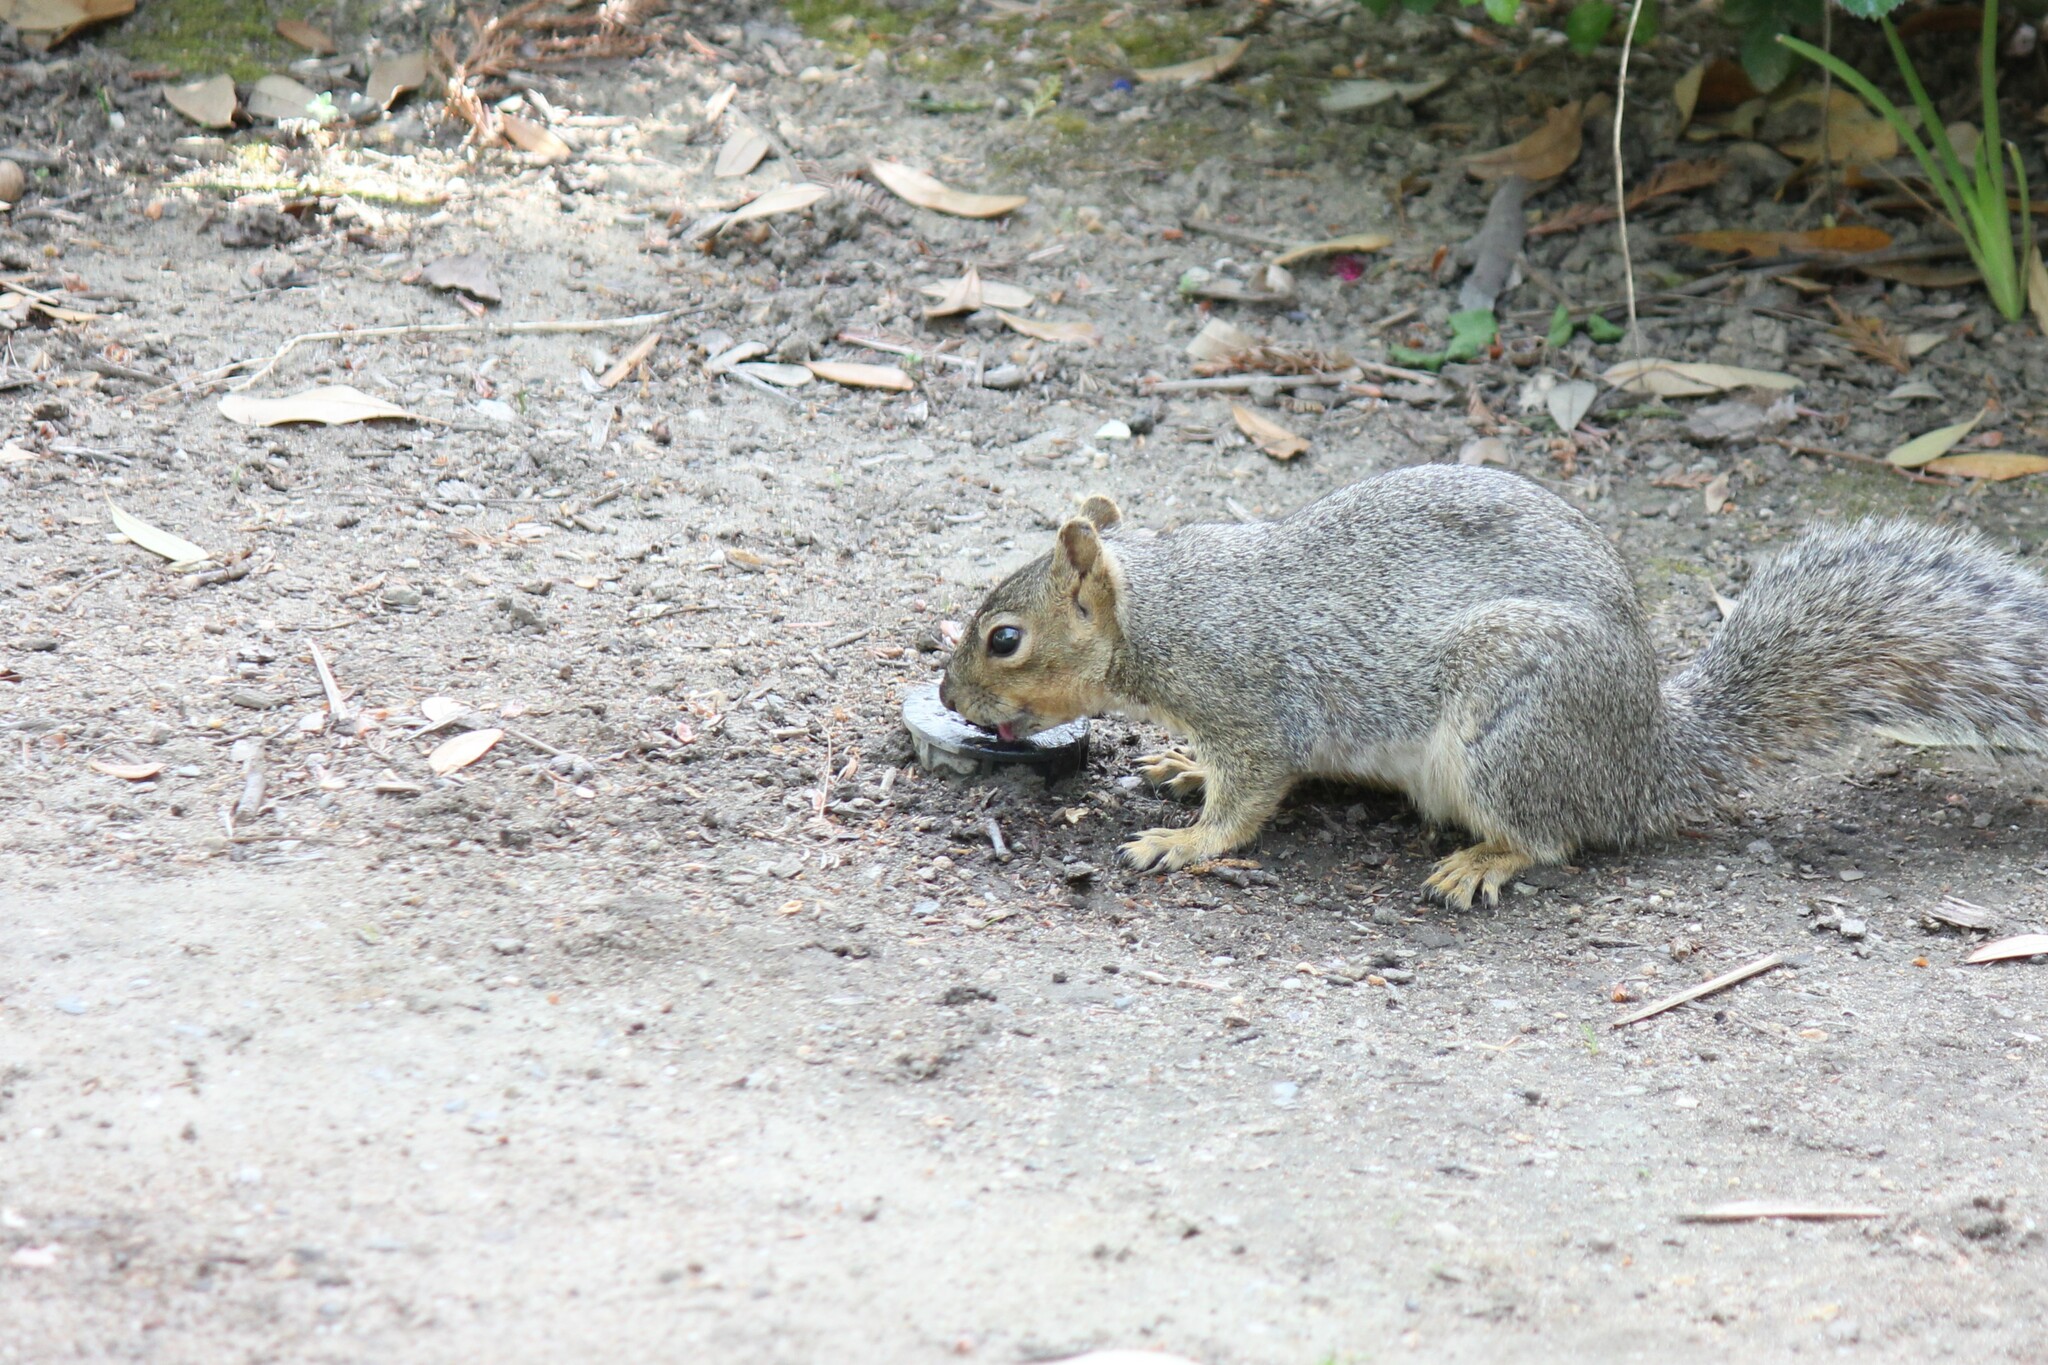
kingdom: Animalia
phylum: Chordata
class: Mammalia
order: Rodentia
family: Sciuridae
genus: Sciurus
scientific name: Sciurus niger
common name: Fox squirrel
